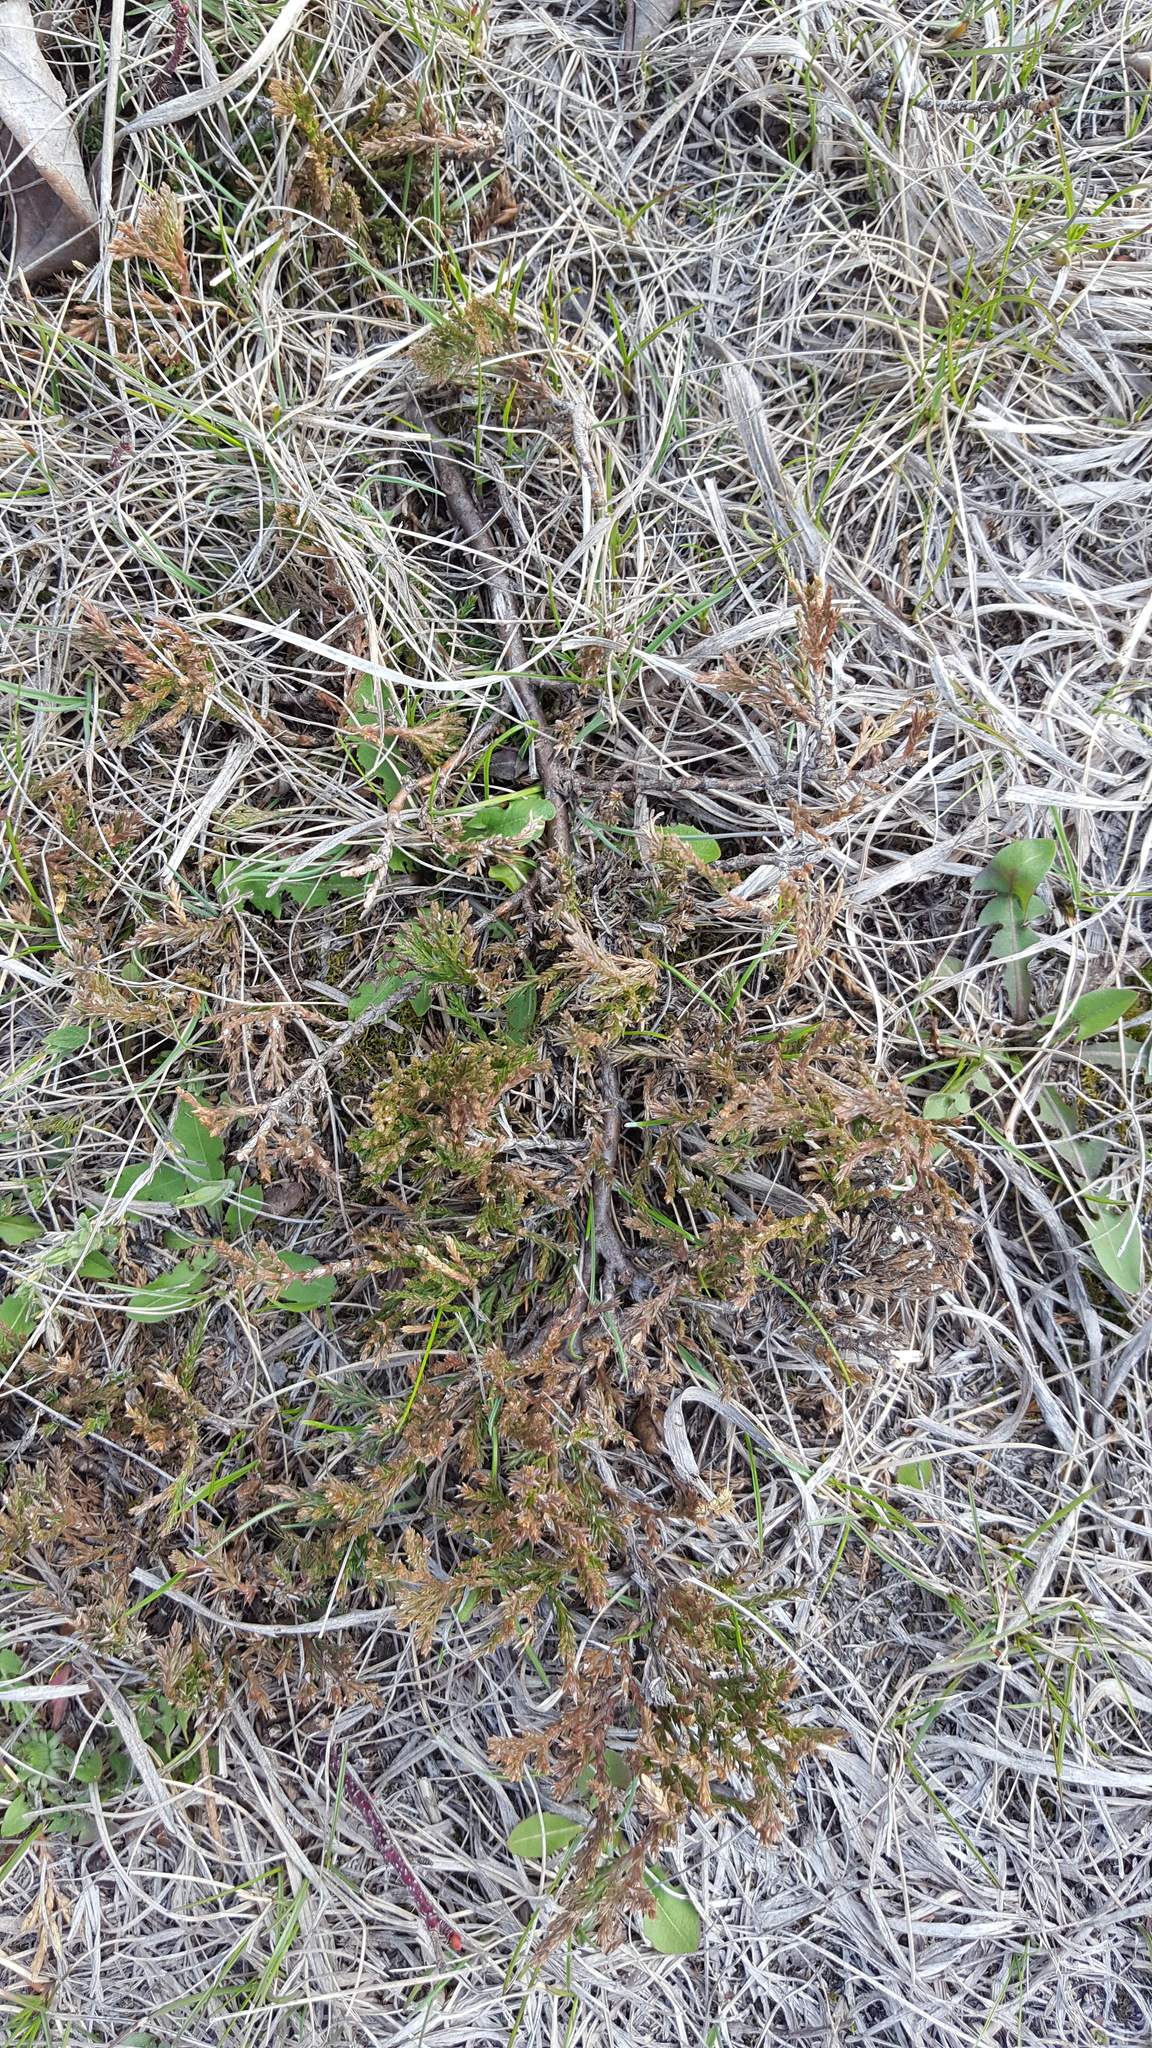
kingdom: Plantae
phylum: Tracheophyta
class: Pinopsida
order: Pinales
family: Cupressaceae
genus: Juniperus
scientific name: Juniperus horizontalis
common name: Creeping juniper
